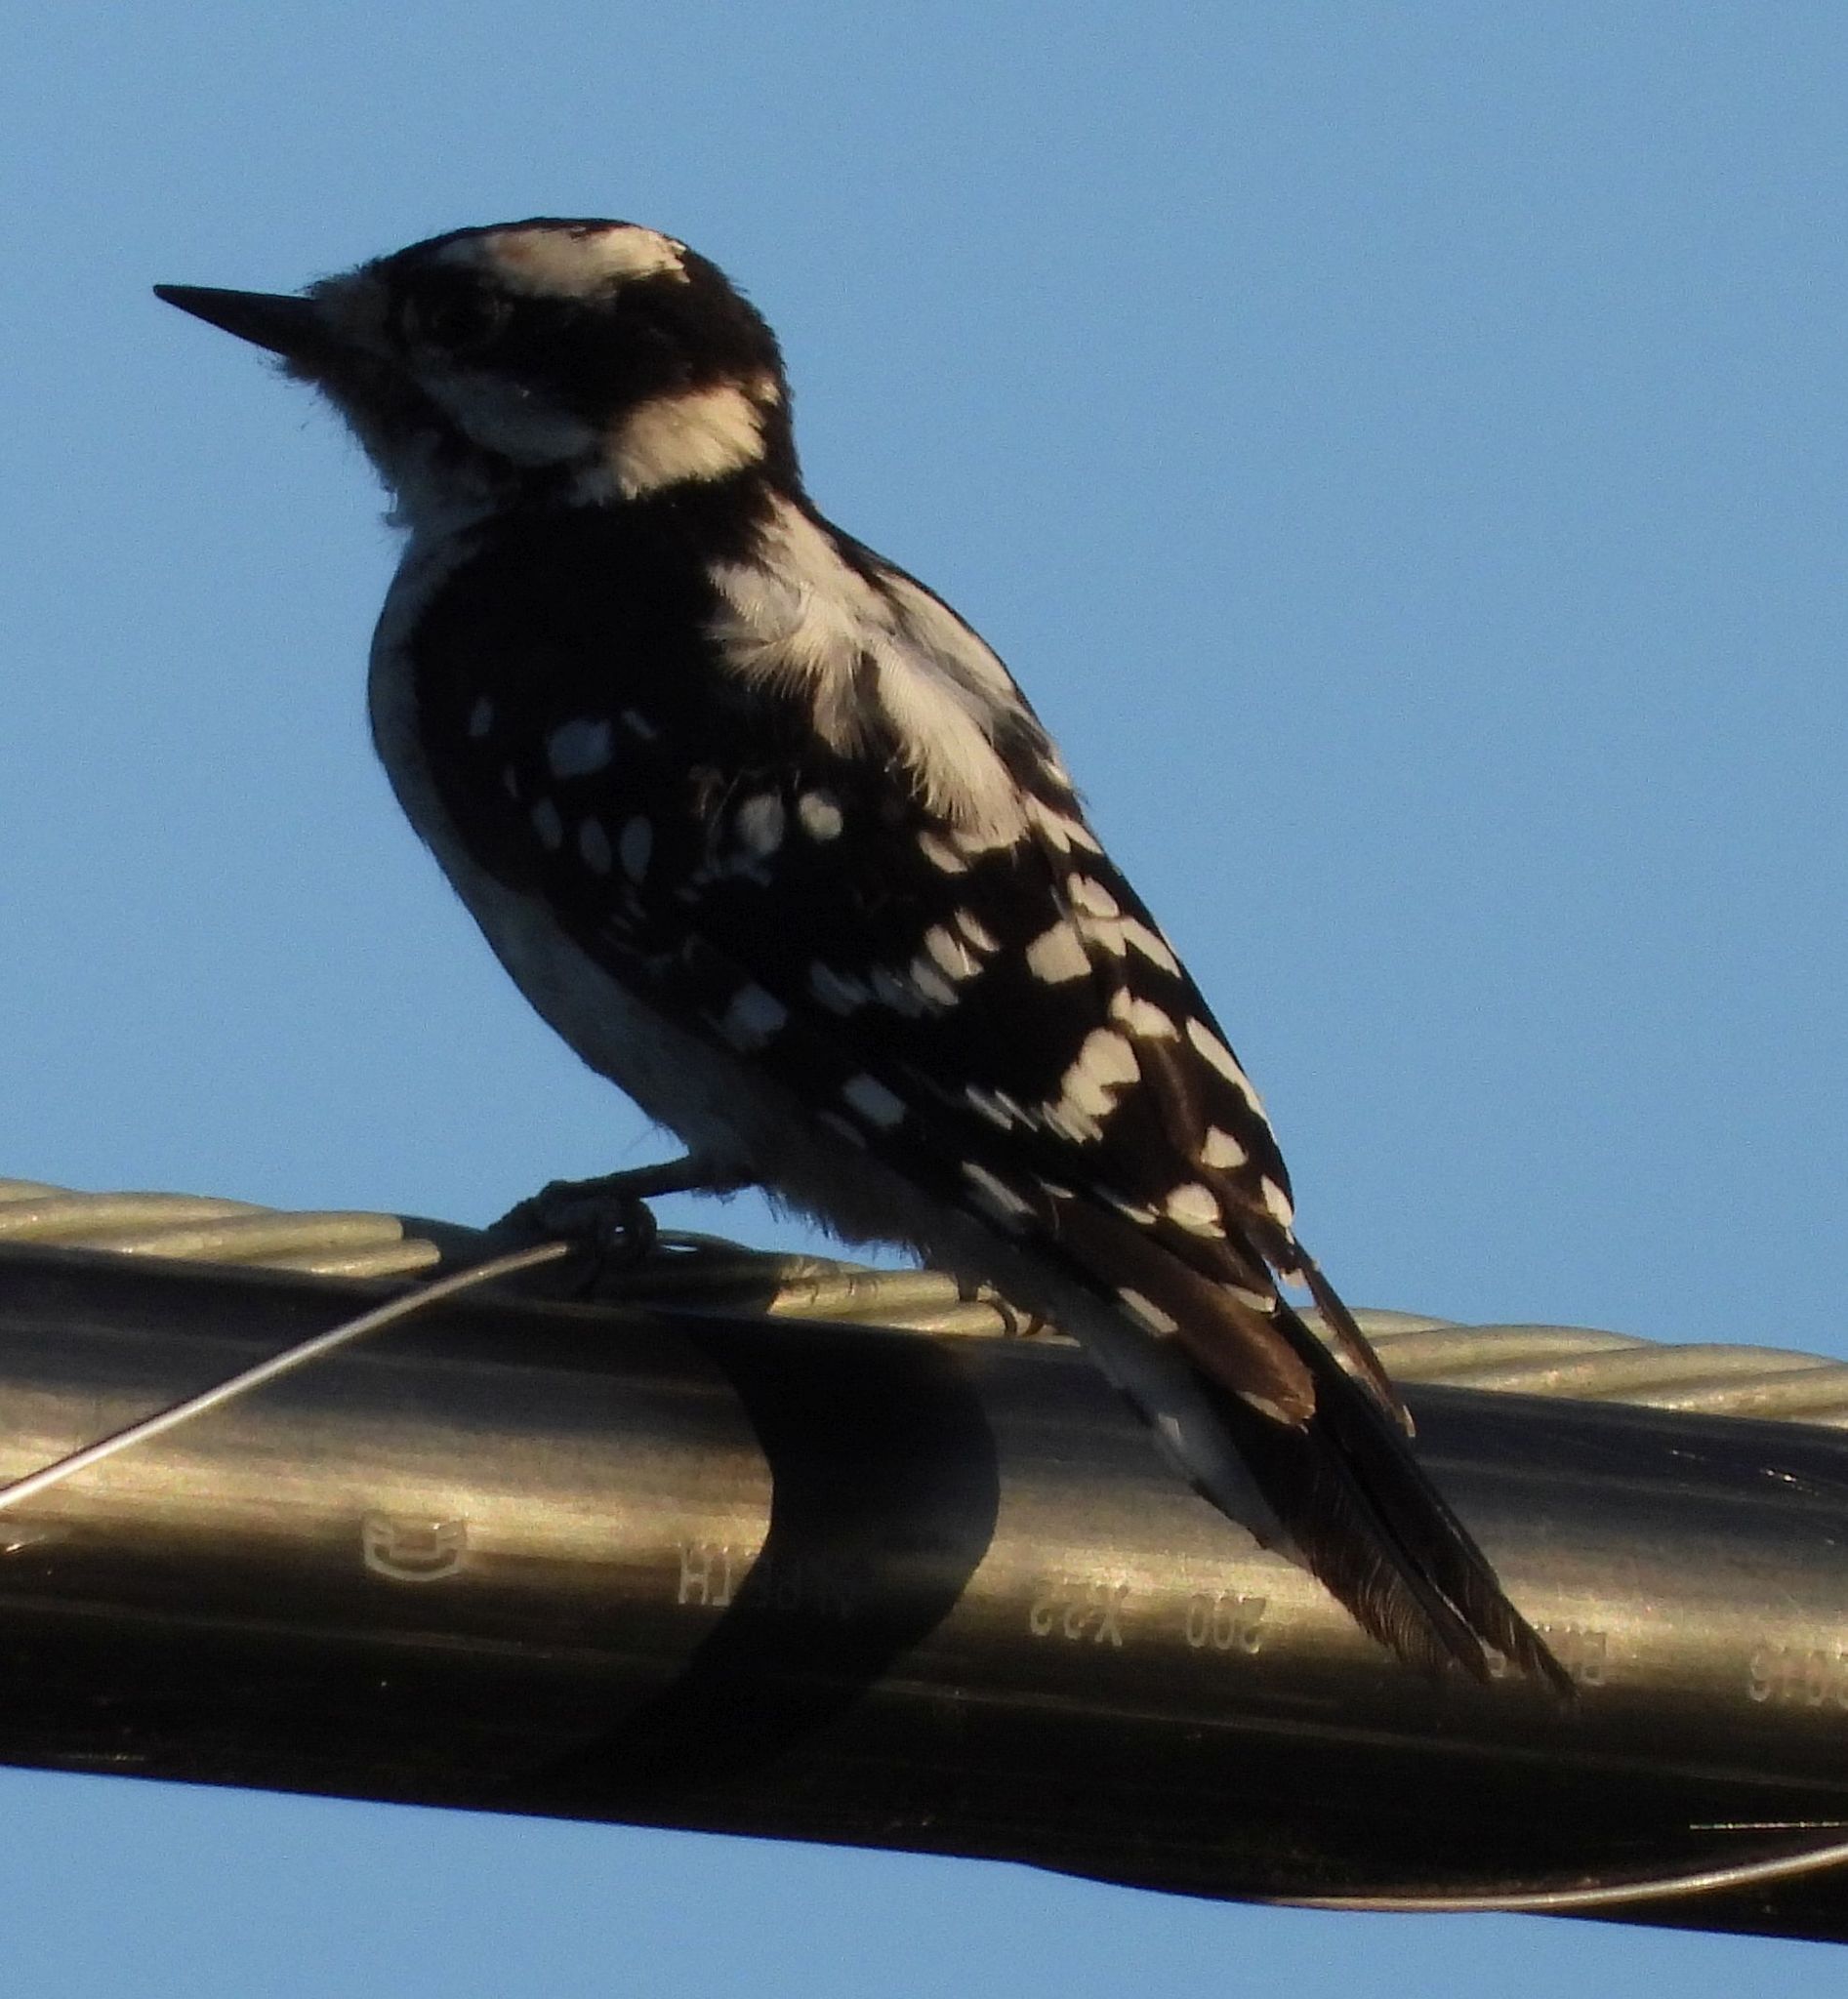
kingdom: Animalia
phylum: Chordata
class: Aves
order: Piciformes
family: Picidae
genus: Dryobates
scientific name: Dryobates pubescens
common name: Downy woodpecker
